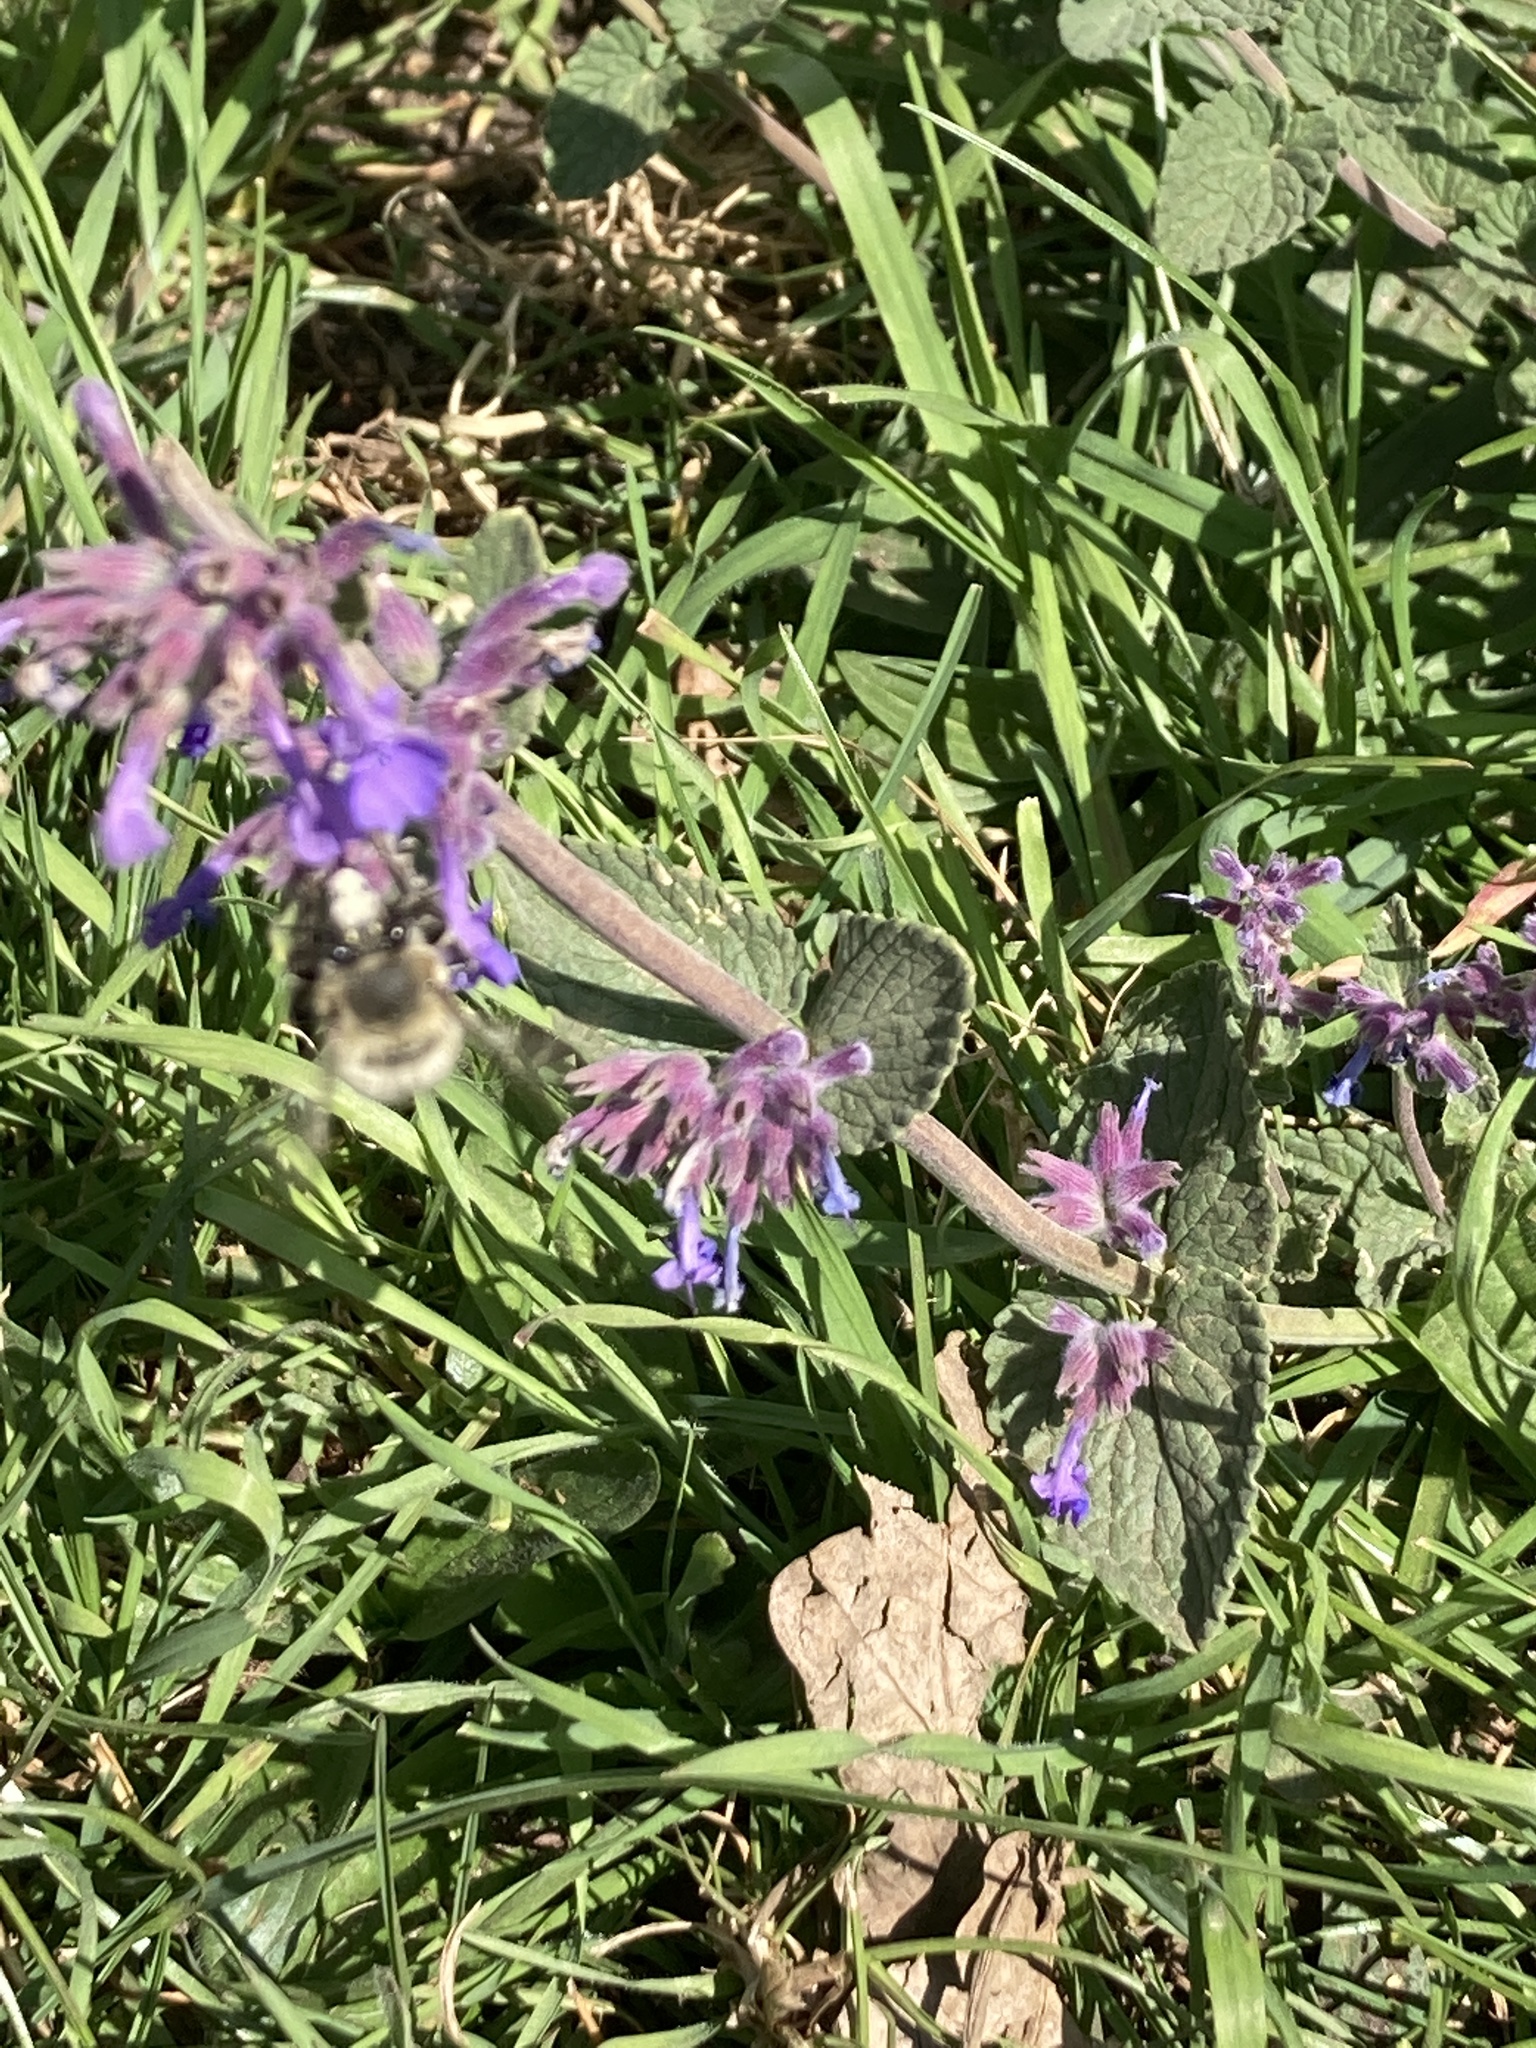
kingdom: Animalia
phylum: Arthropoda
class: Insecta
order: Hymenoptera
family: Apidae
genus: Anthophora
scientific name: Anthophora plumipes
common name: Hairy-footed flower bee
